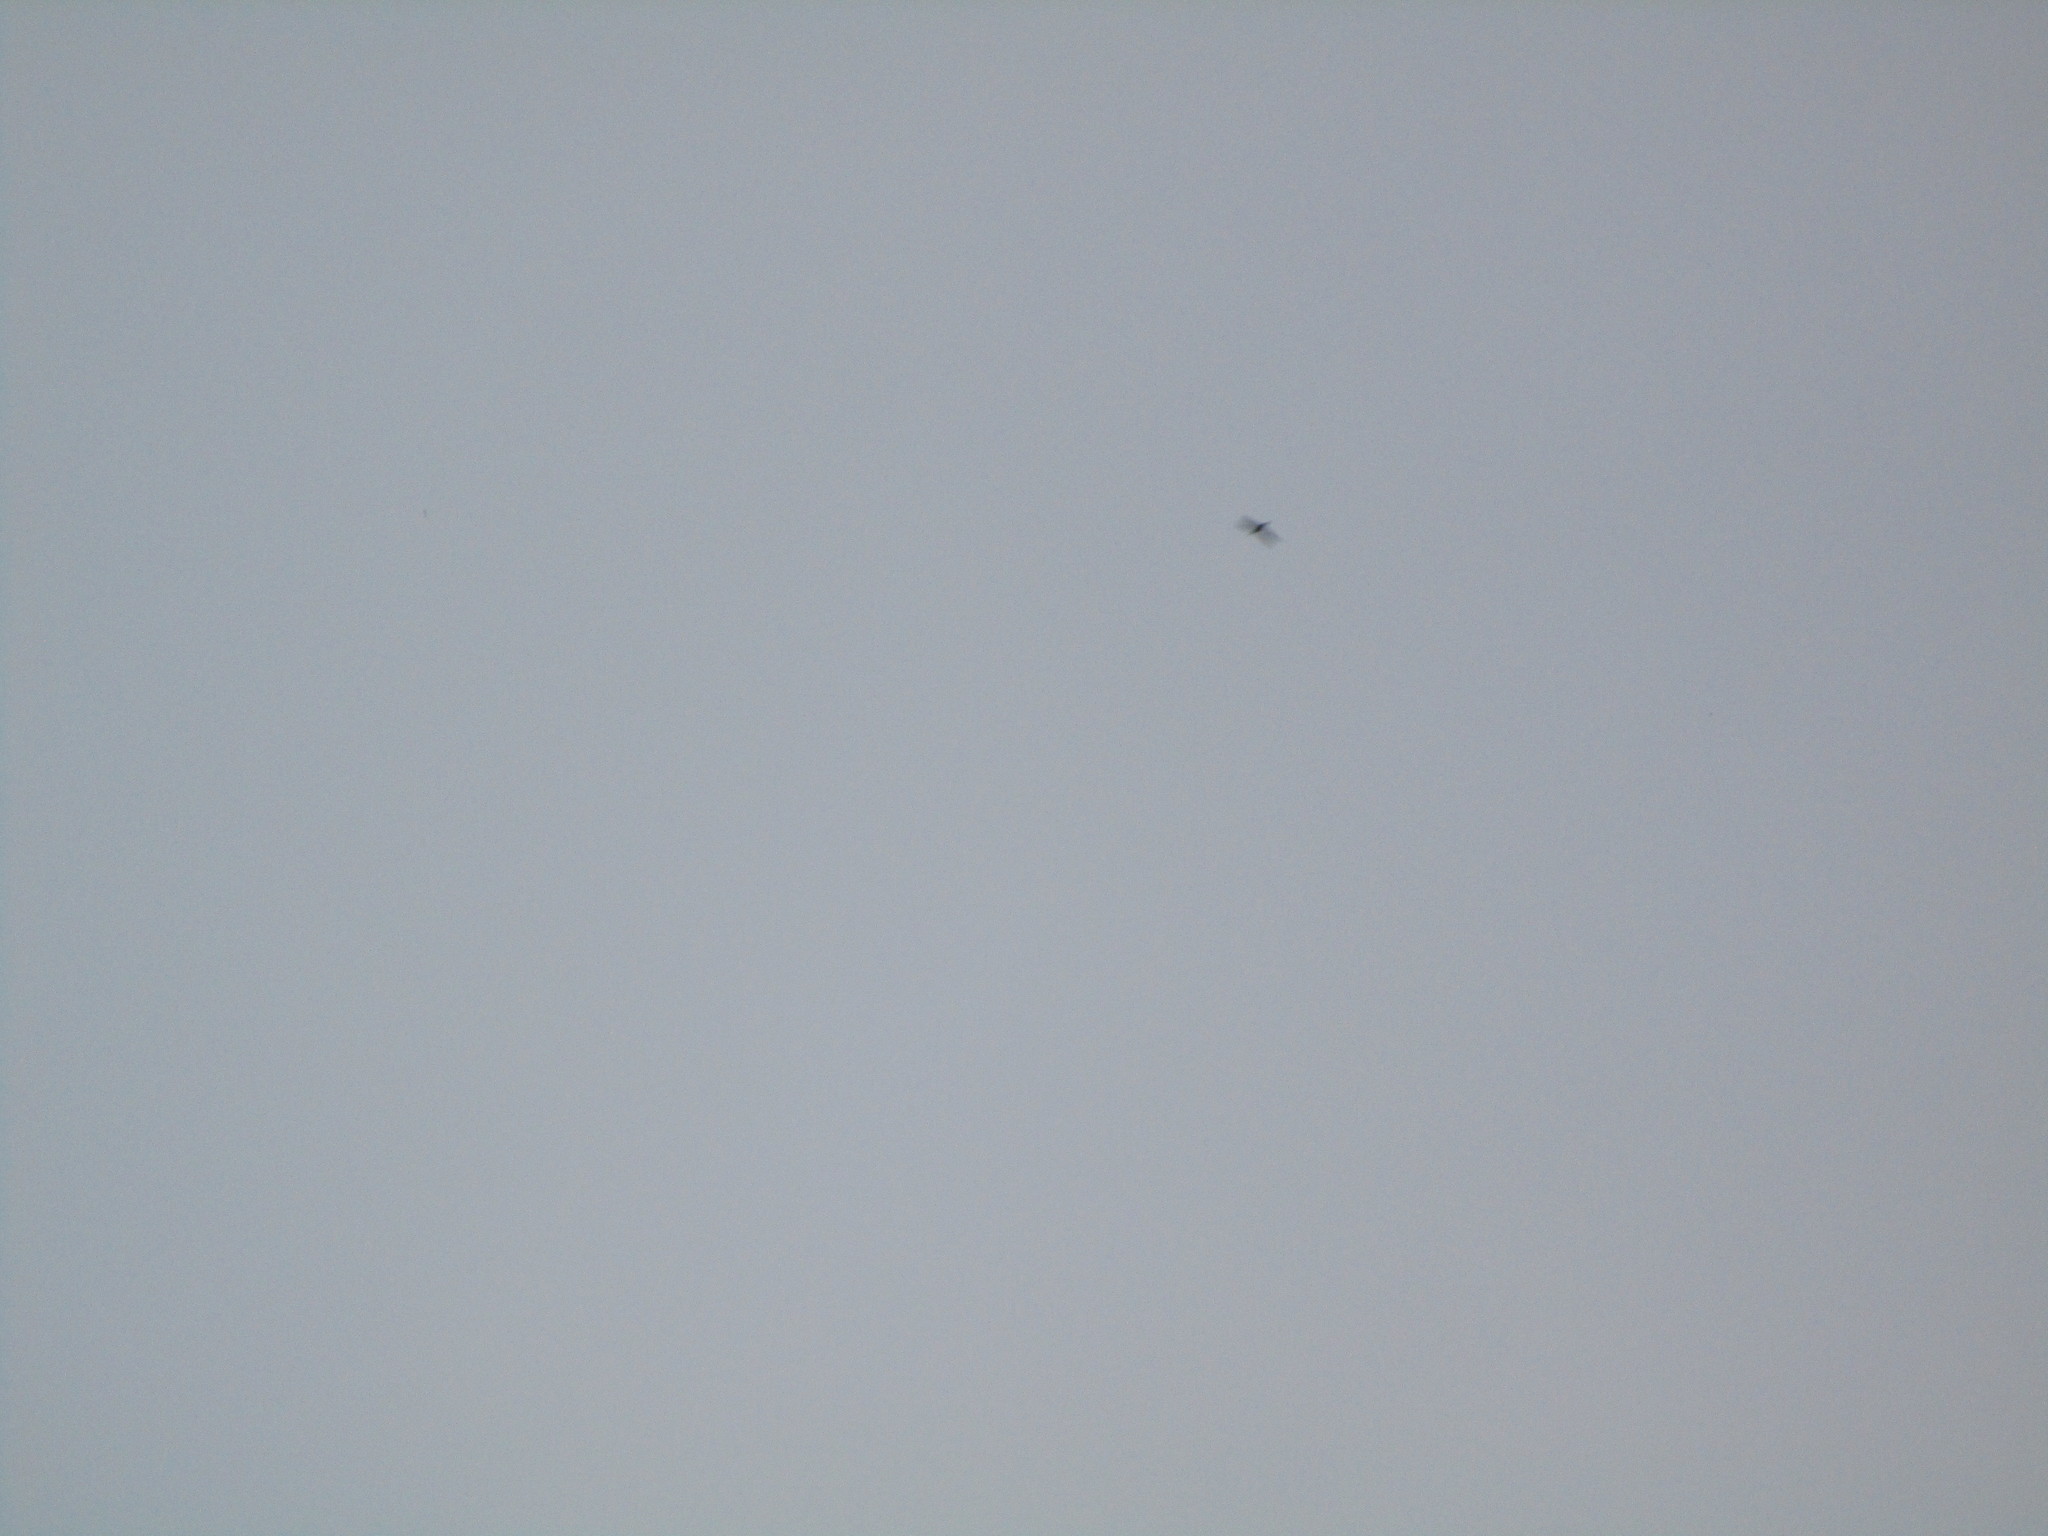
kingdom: Animalia
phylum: Chordata
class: Aves
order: Apodiformes
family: Apodidae
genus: Chaetura
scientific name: Chaetura pelagica
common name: Chimney swift
